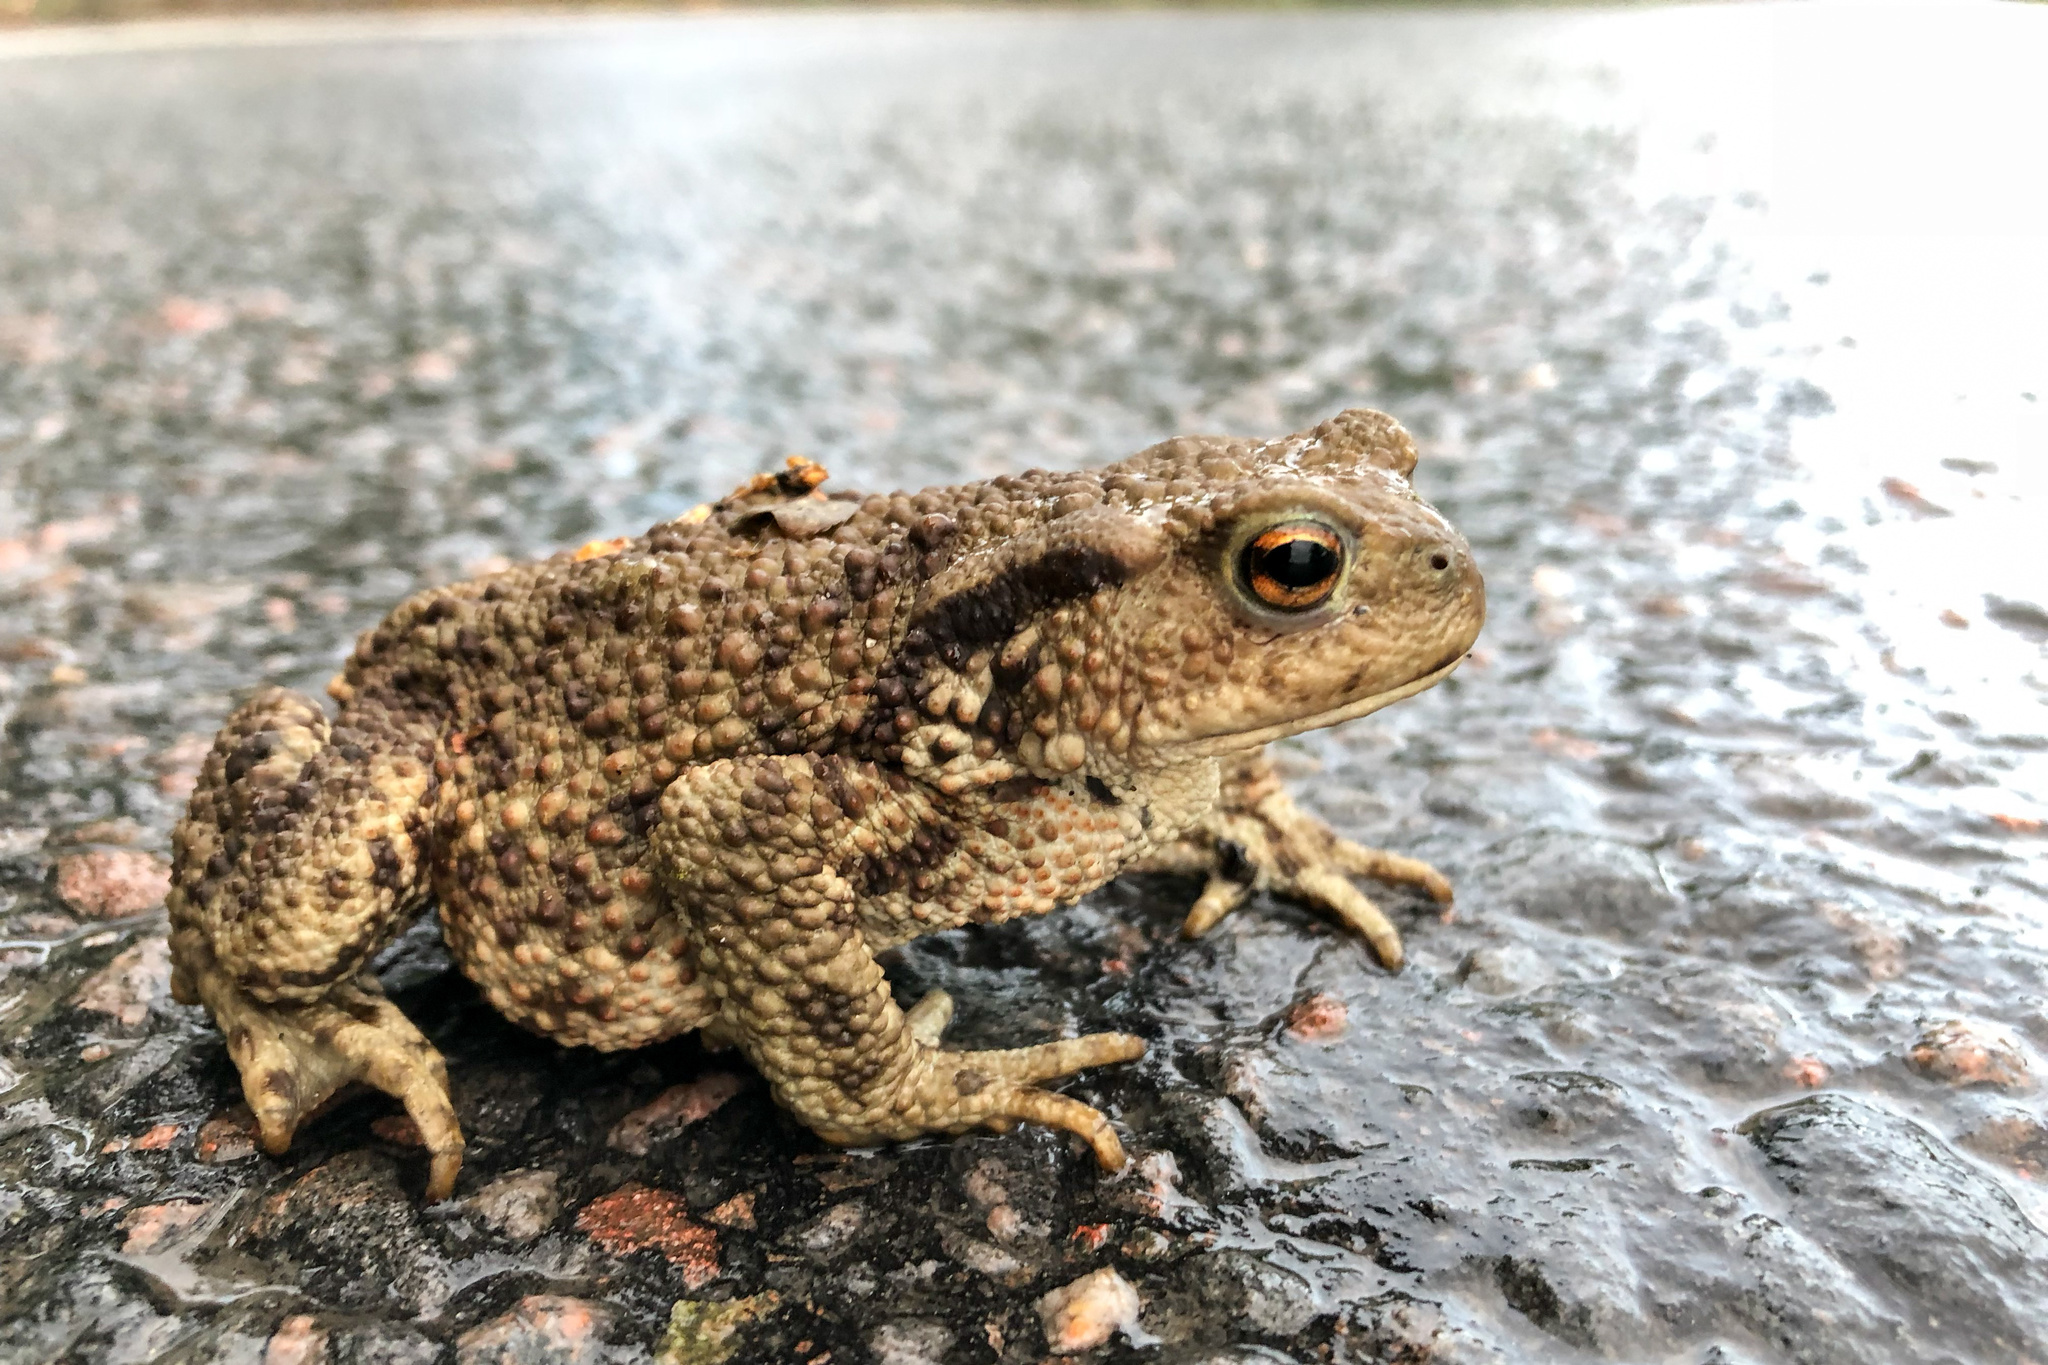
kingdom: Animalia
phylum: Chordata
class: Amphibia
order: Anura
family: Bufonidae
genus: Bufo
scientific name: Bufo bufo
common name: Common toad
